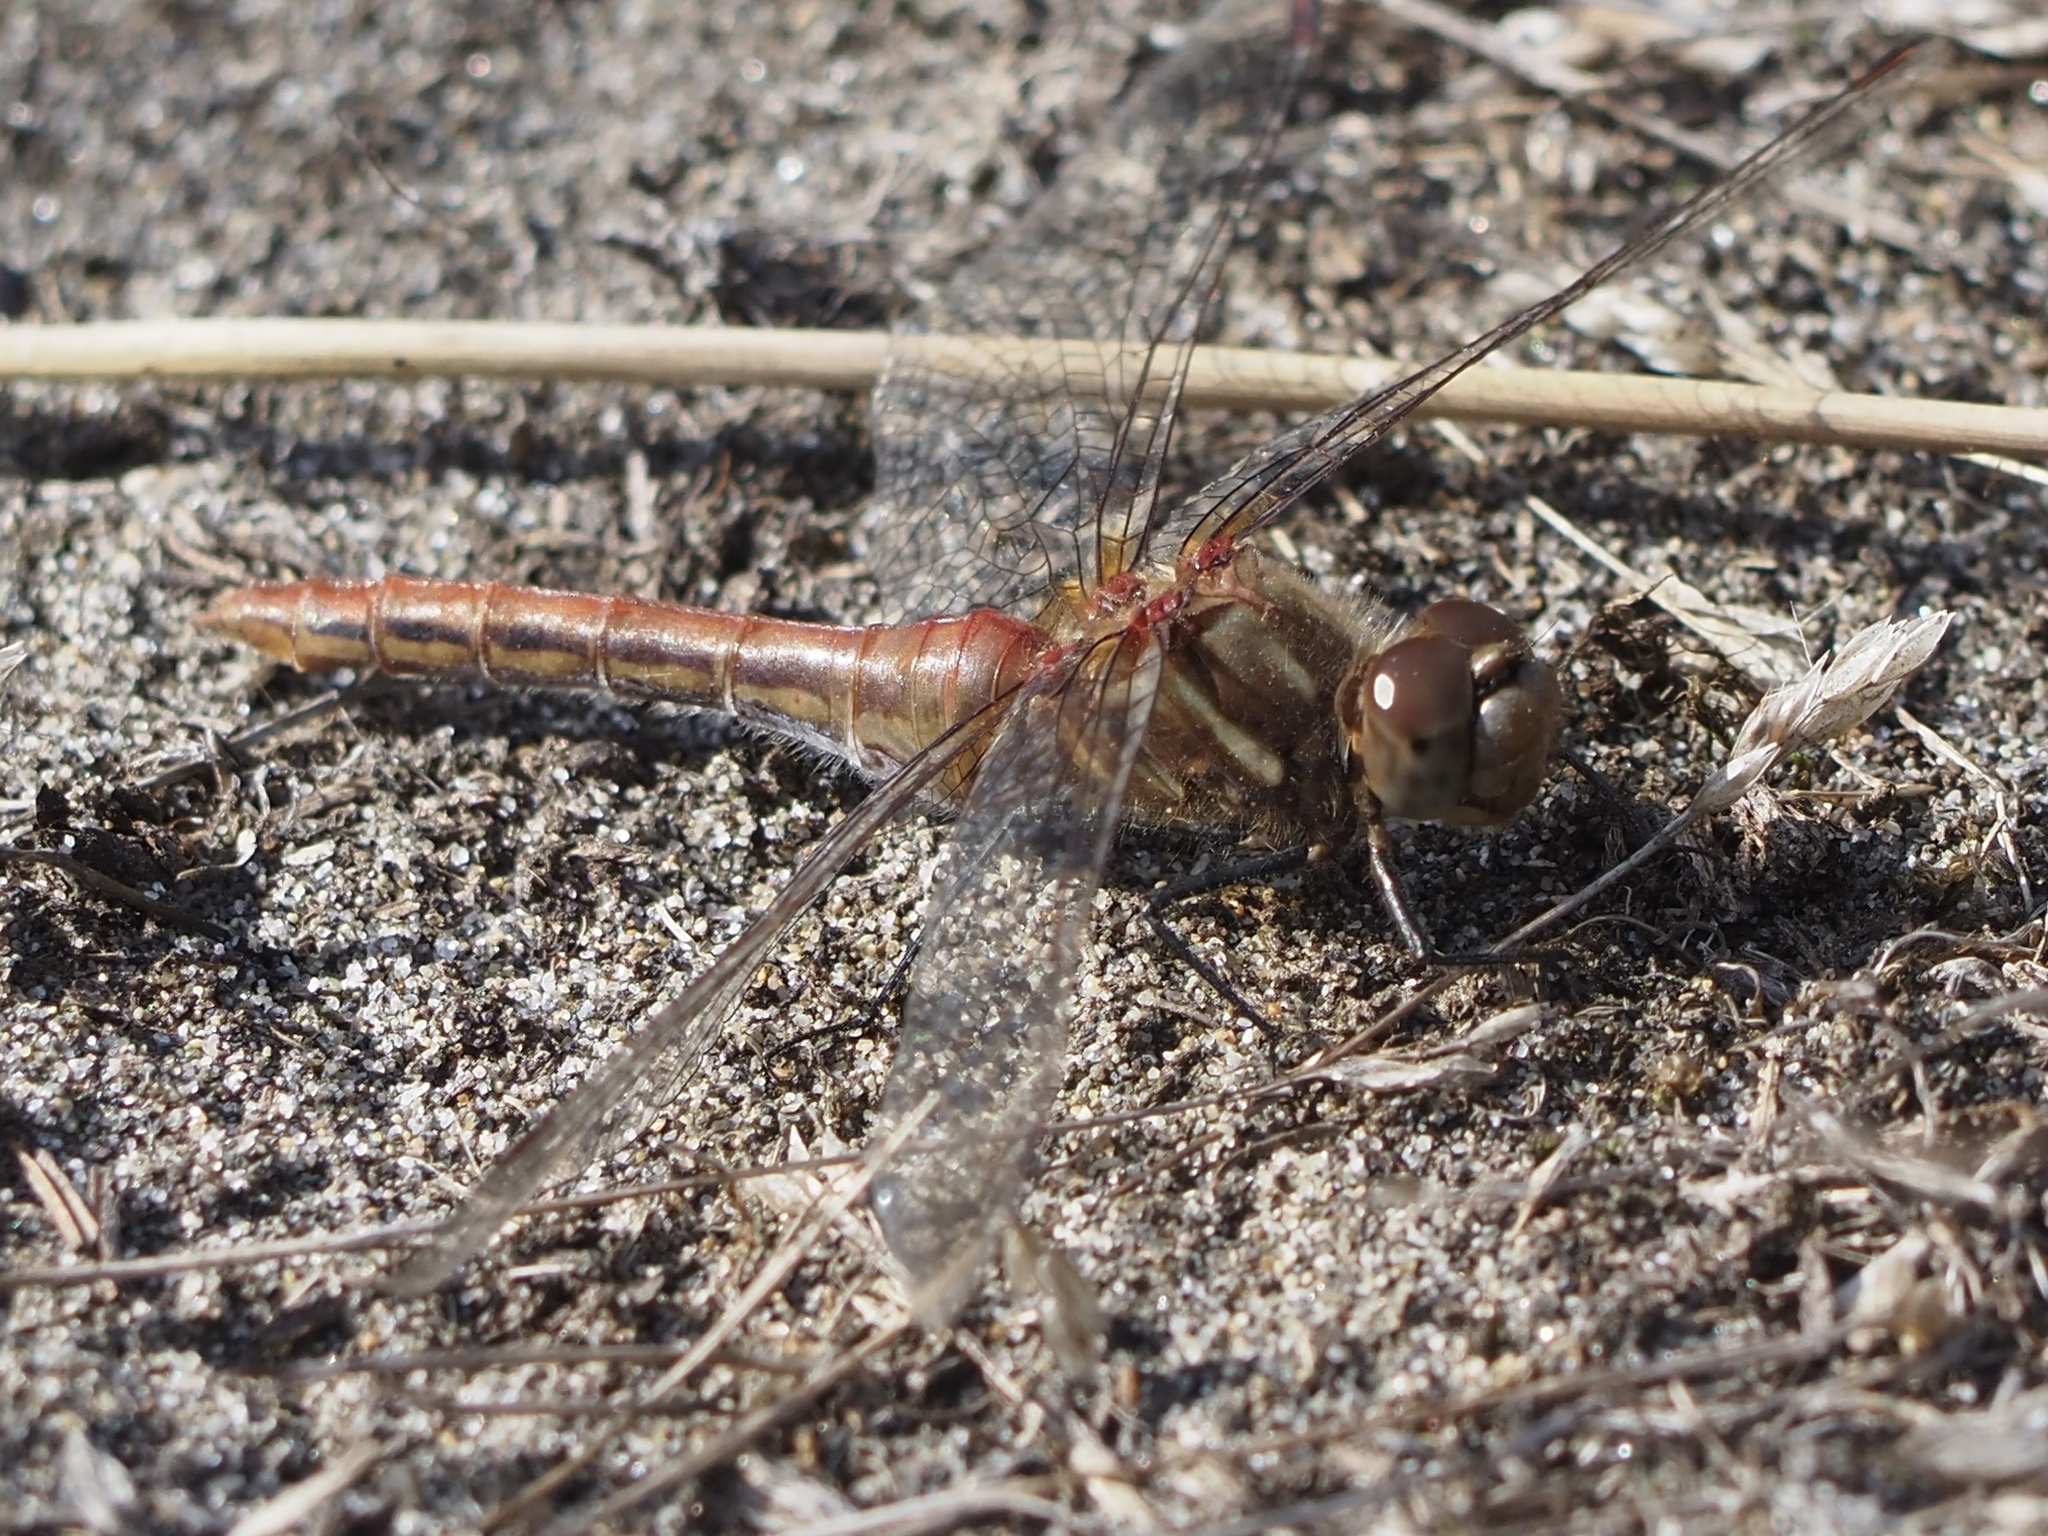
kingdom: Animalia
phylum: Arthropoda
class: Insecta
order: Odonata
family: Libellulidae
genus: Sympetrum
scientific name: Sympetrum pallipes
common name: Striped meadowhawk
